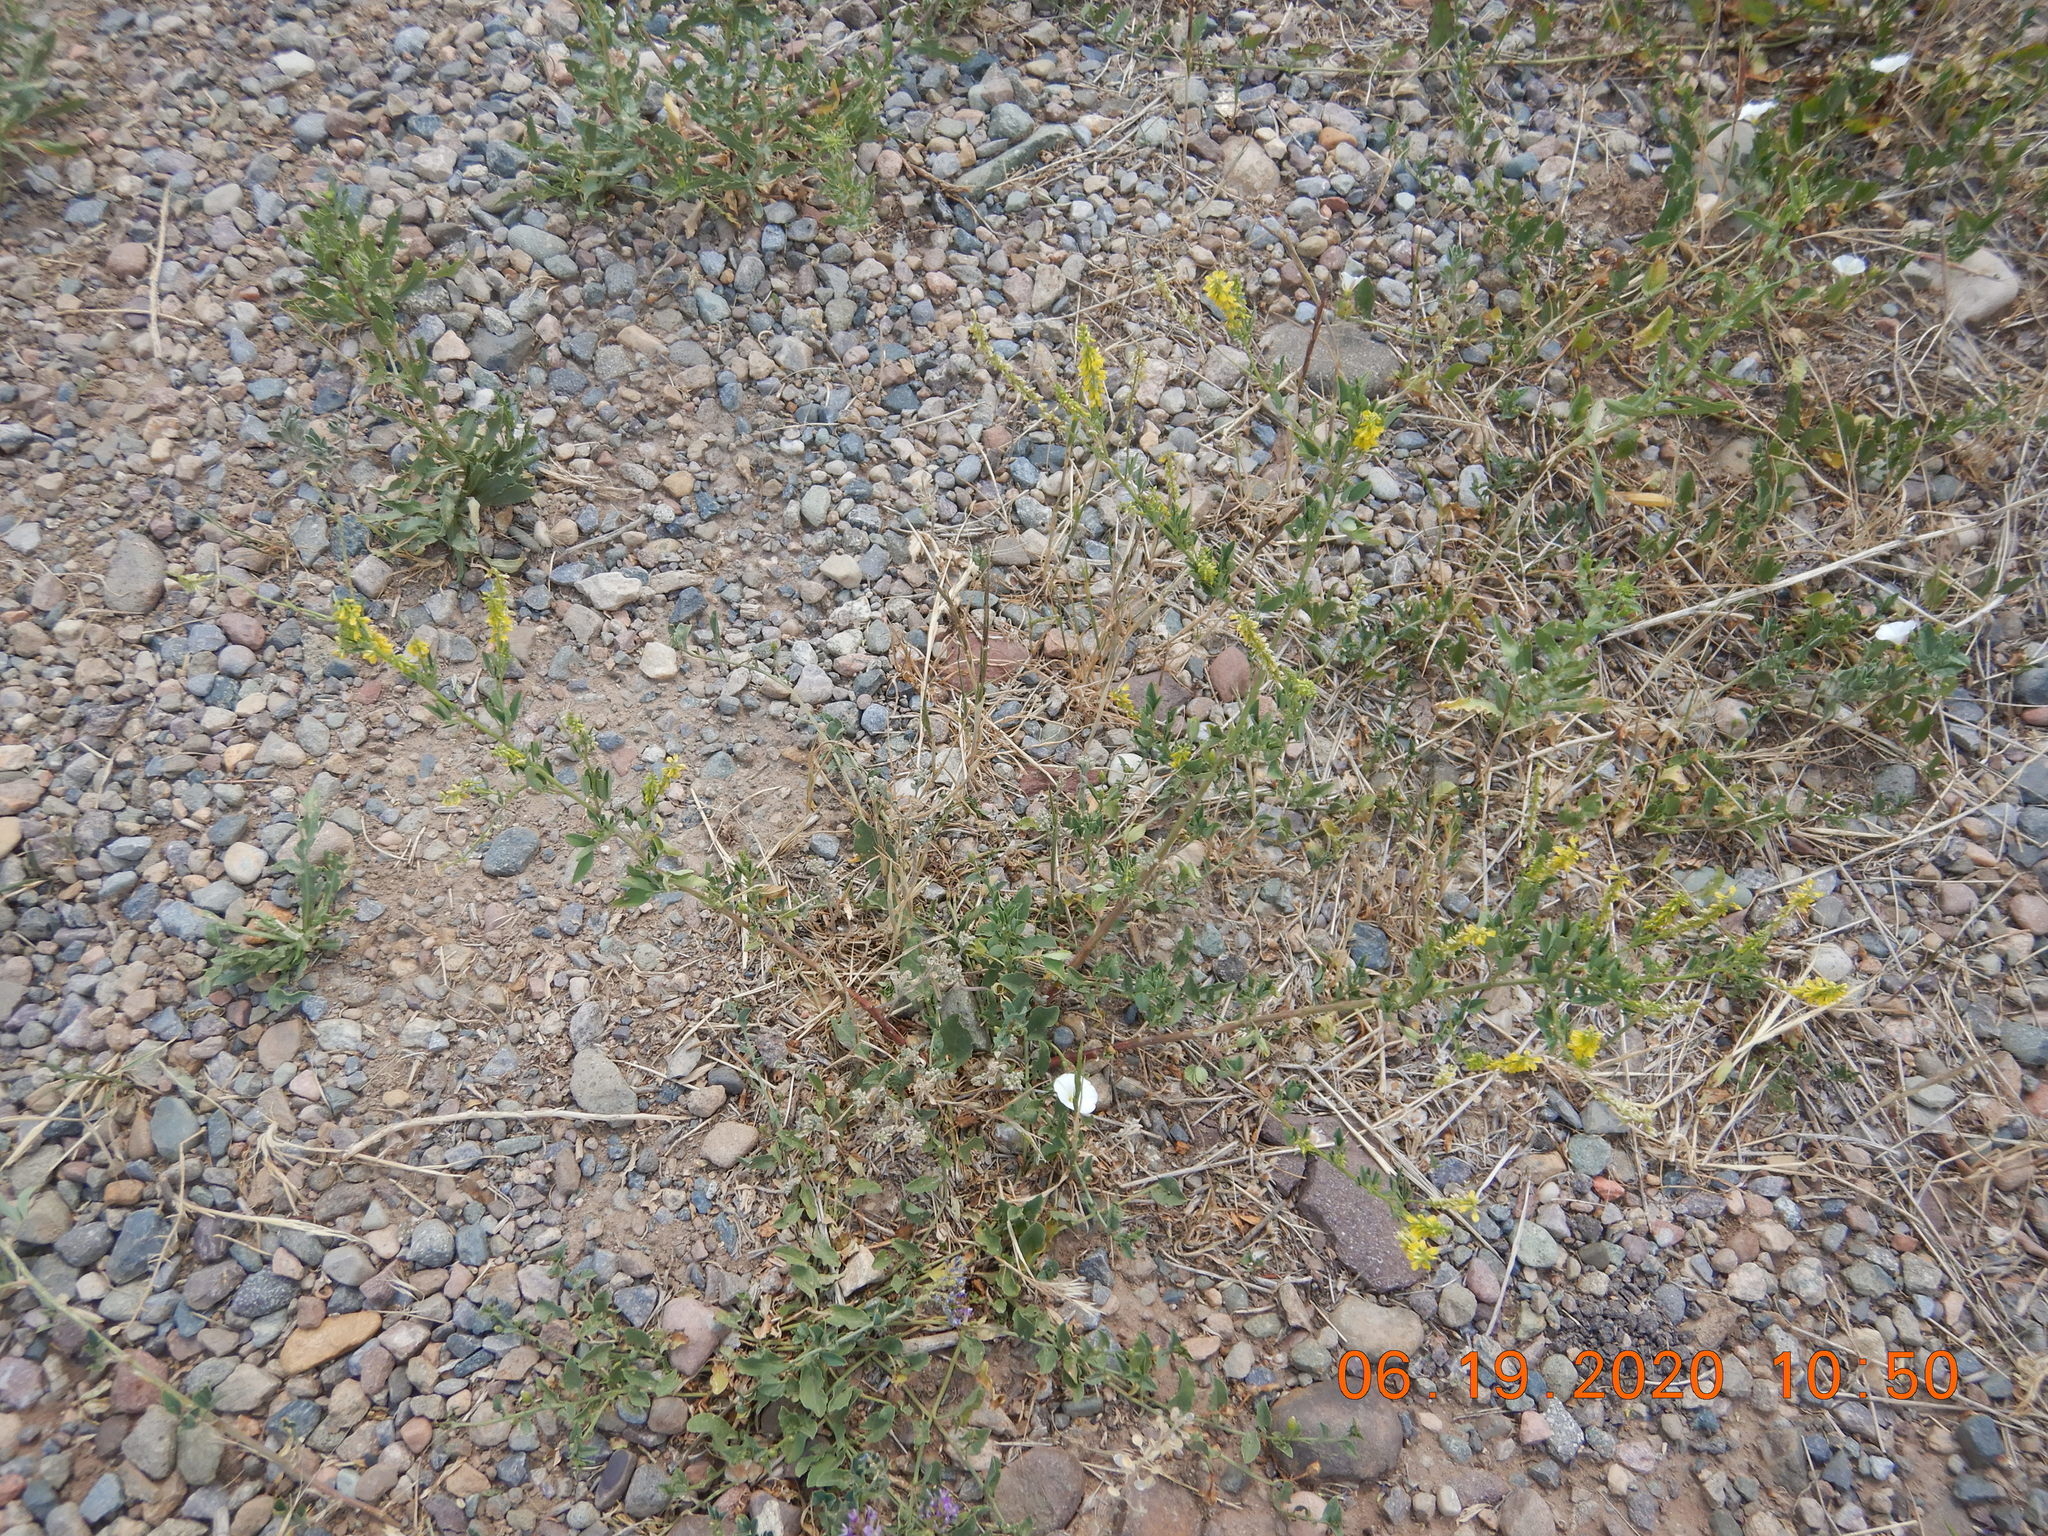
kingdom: Plantae
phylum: Tracheophyta
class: Magnoliopsida
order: Fabales
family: Fabaceae
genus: Melilotus
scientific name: Melilotus officinalis
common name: Sweetclover
